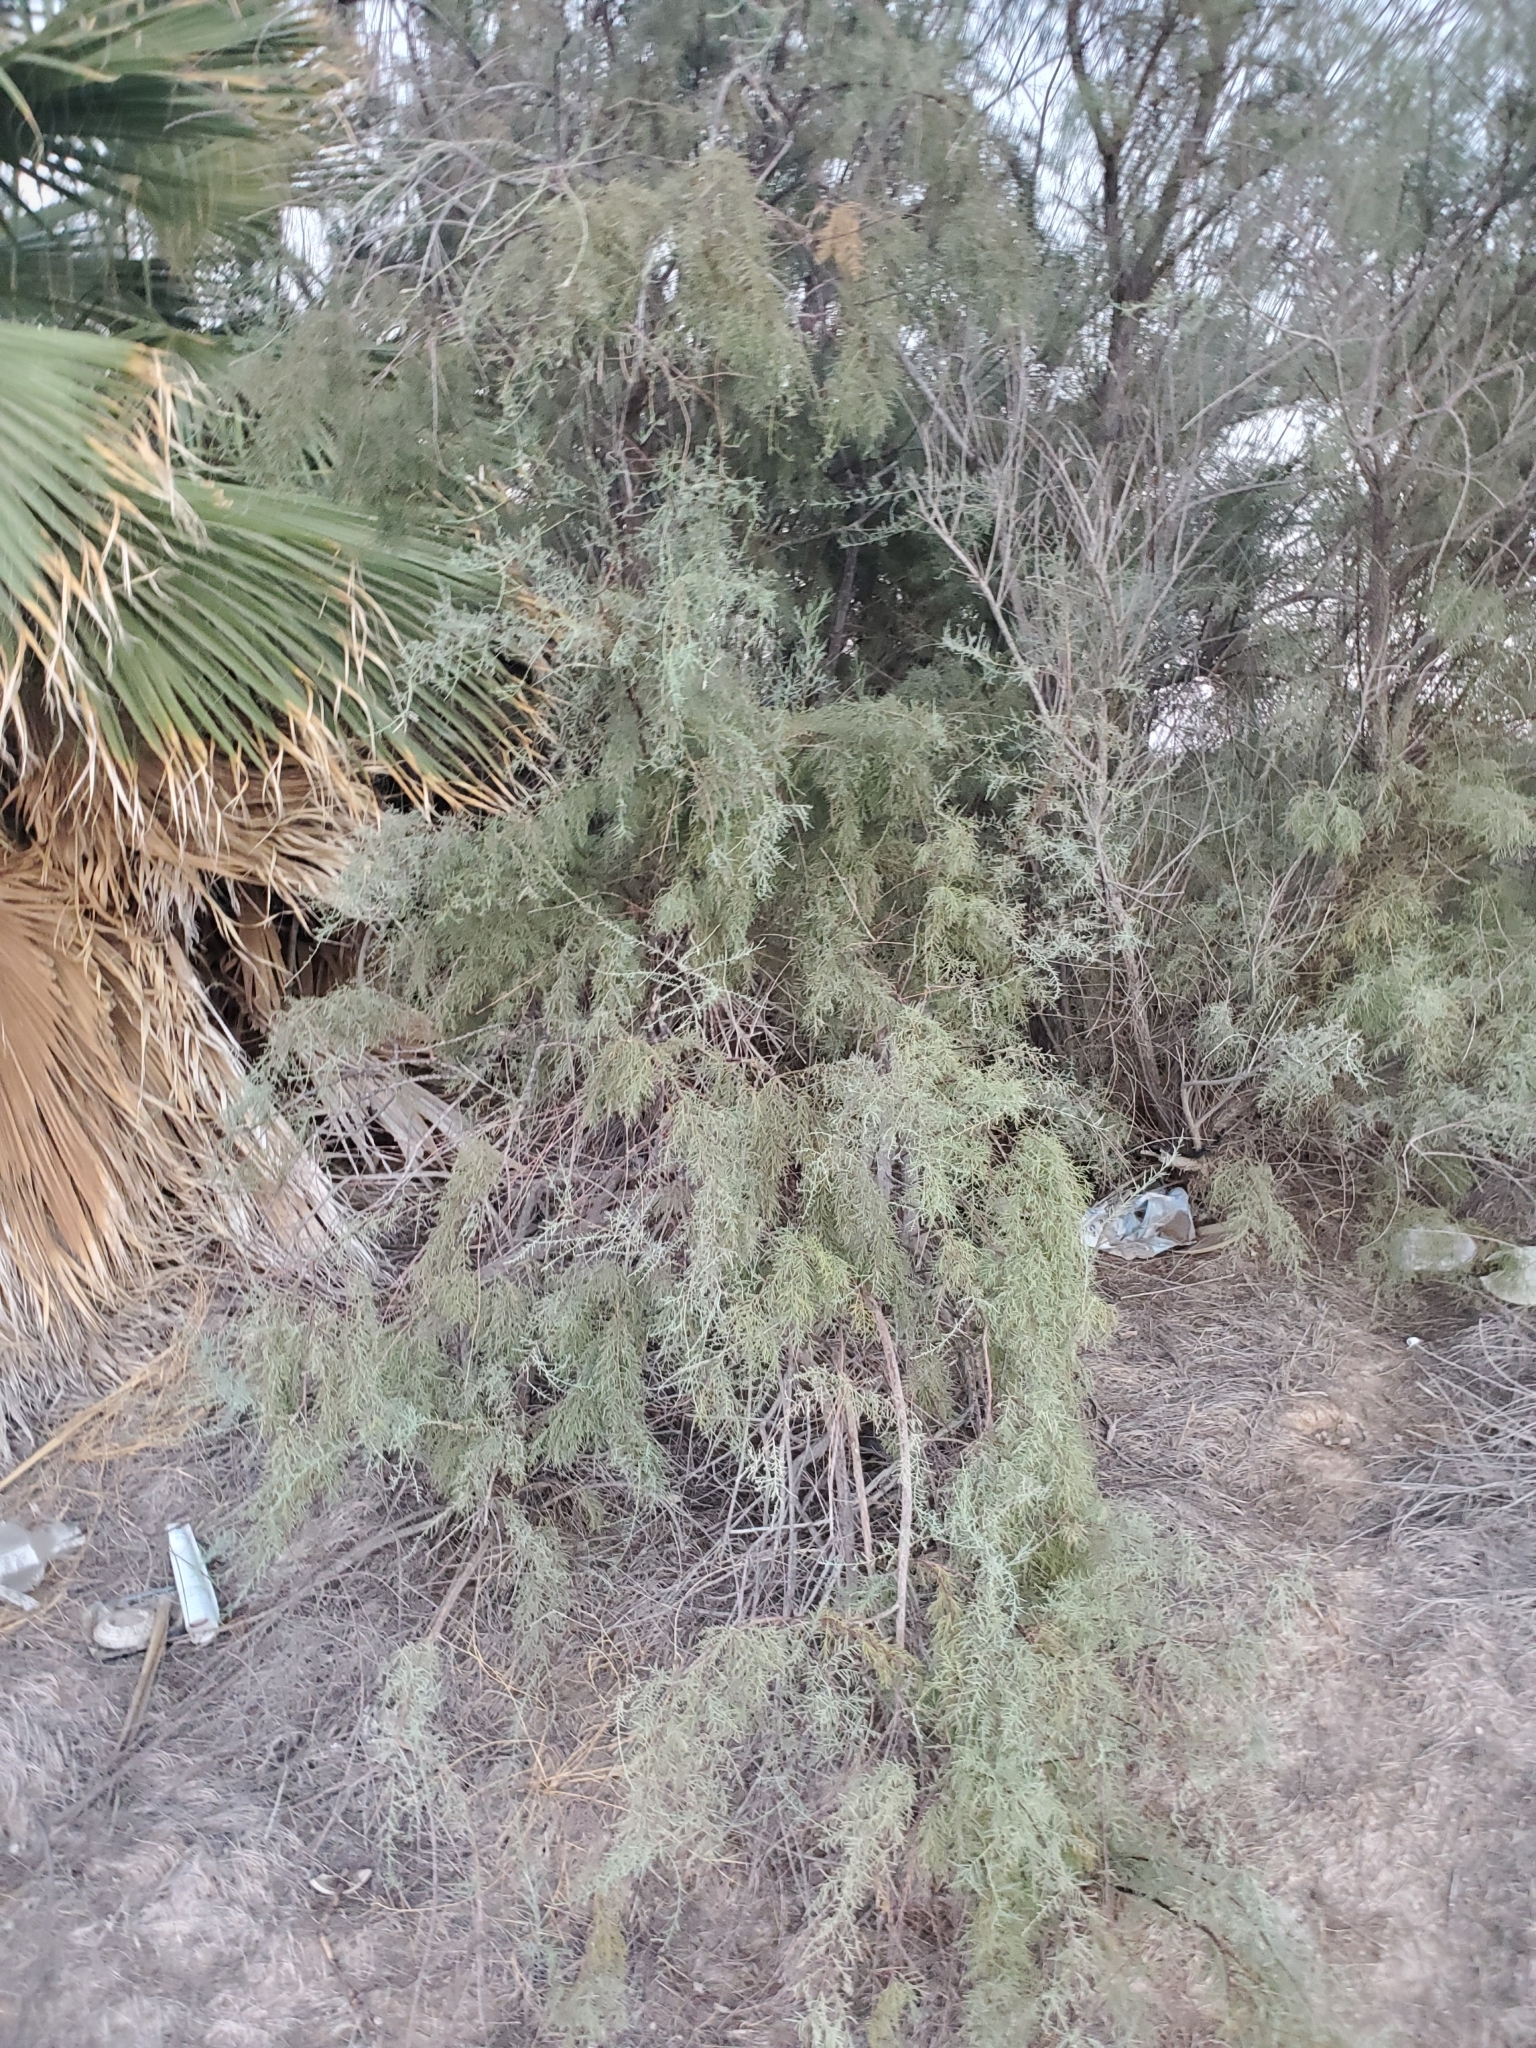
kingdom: Plantae
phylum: Tracheophyta
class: Magnoliopsida
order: Caryophyllales
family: Tamaricaceae
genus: Tamarix
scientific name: Tamarix ramosissima
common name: Pink tamarisk
